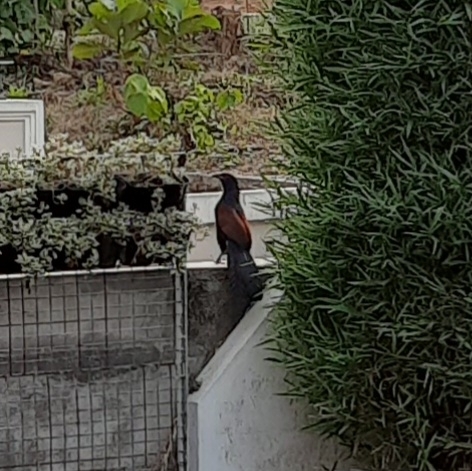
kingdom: Animalia
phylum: Chordata
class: Aves
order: Cuculiformes
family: Cuculidae
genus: Centropus
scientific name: Centropus sinensis
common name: Greater coucal
